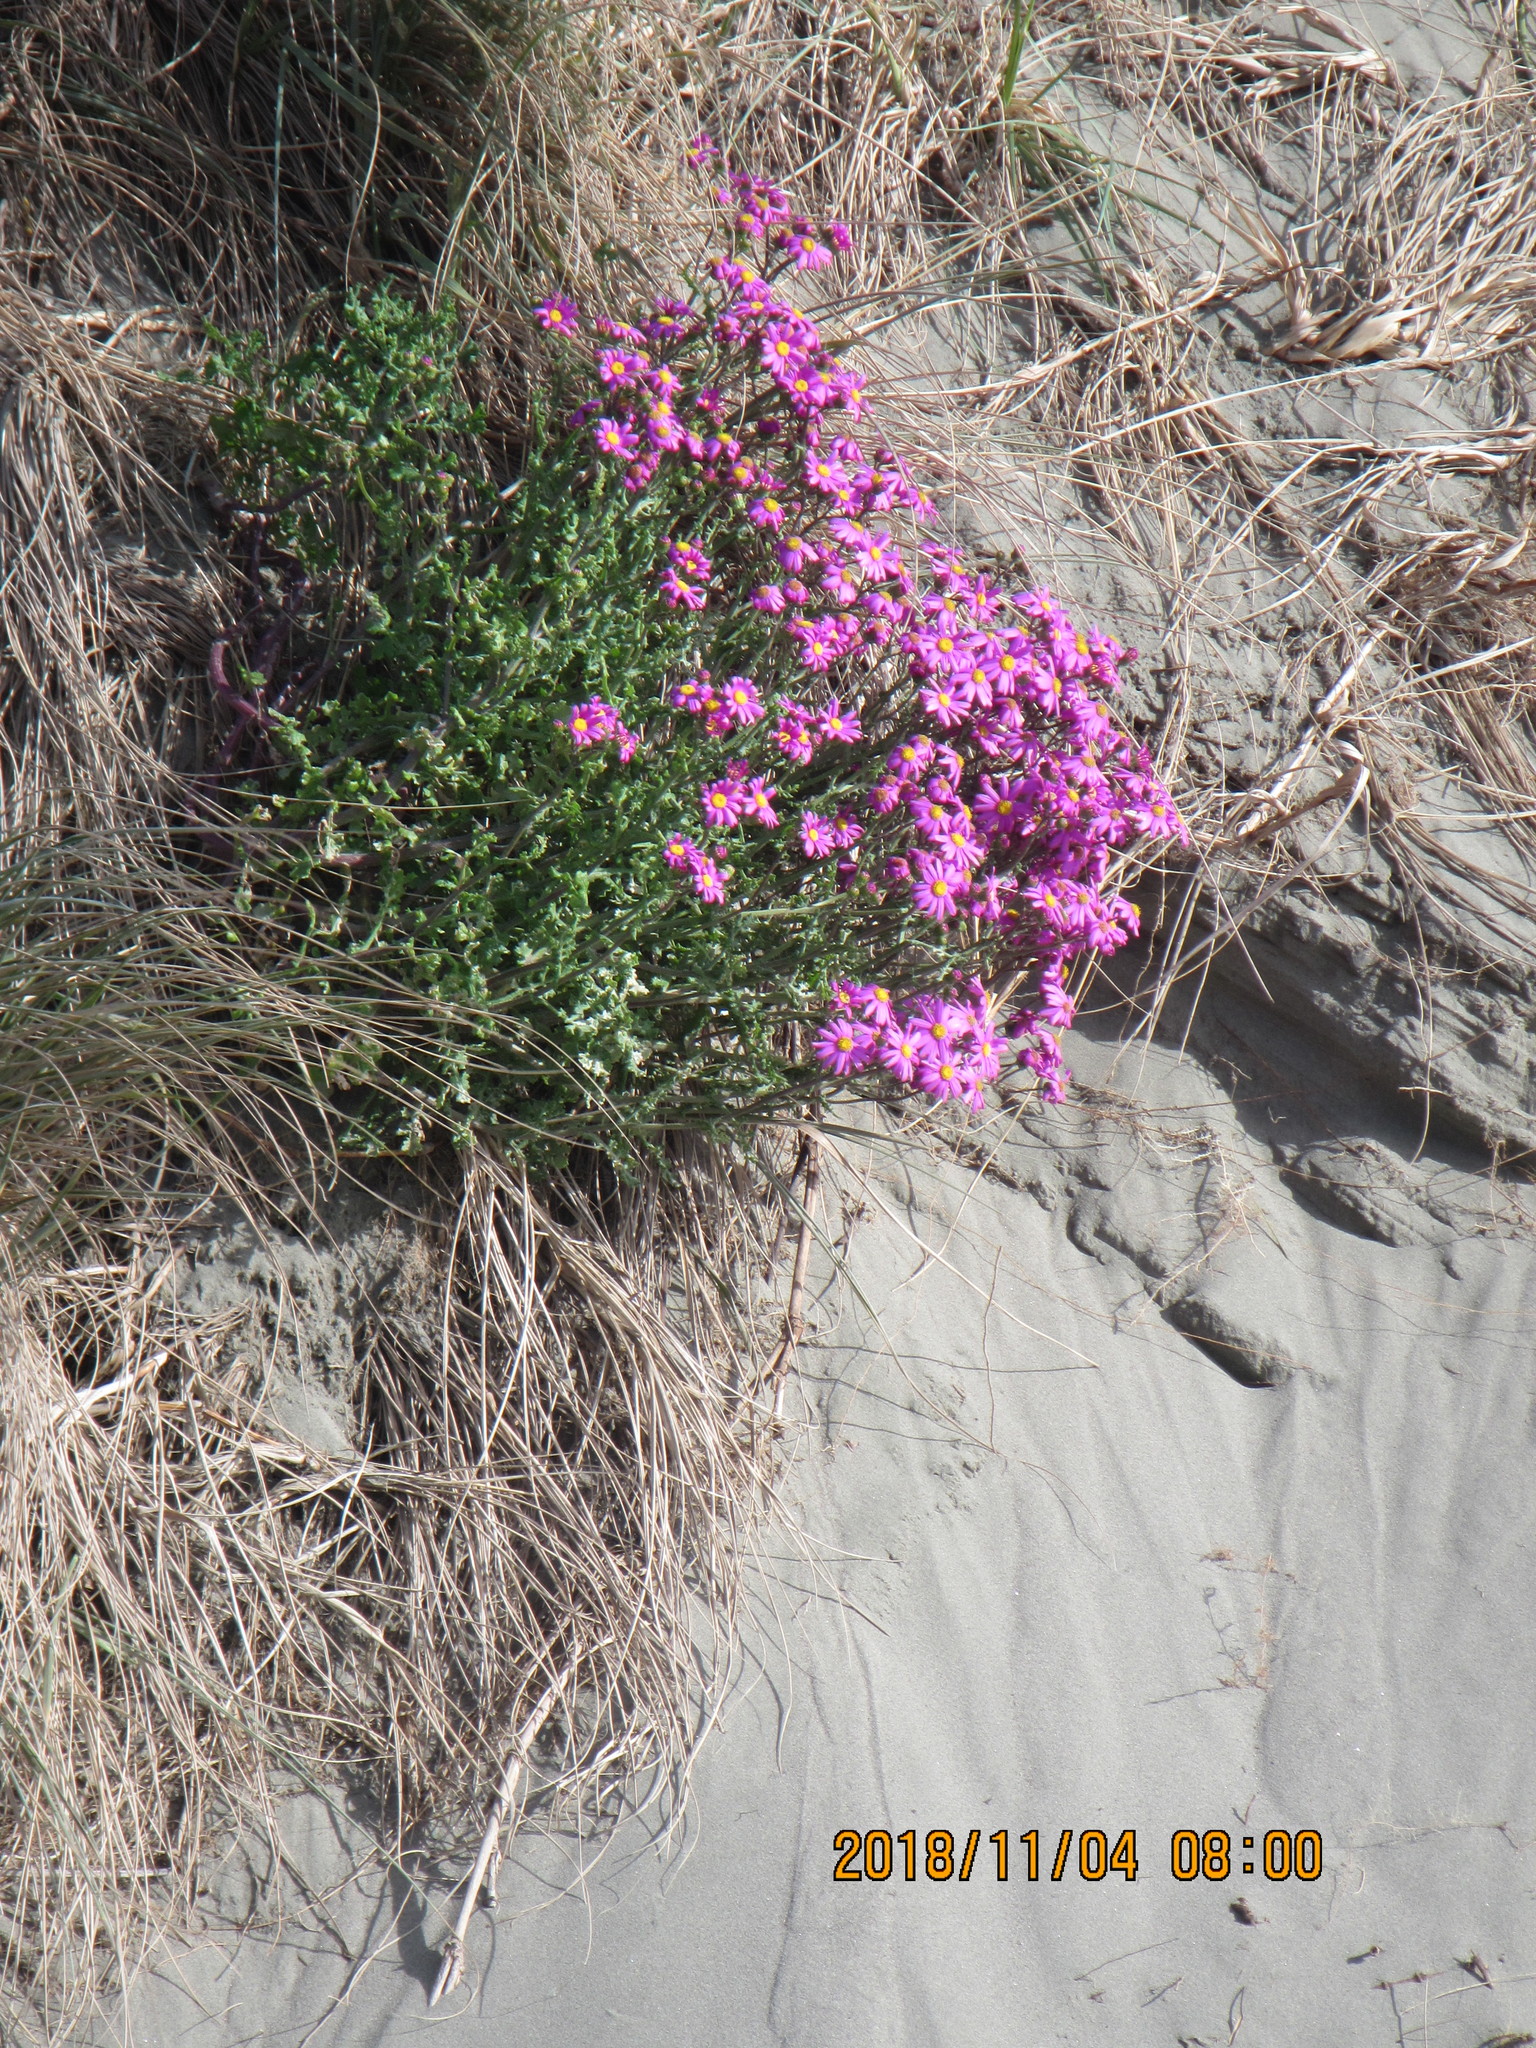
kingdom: Plantae
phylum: Tracheophyta
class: Magnoliopsida
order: Asterales
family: Asteraceae
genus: Senecio
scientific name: Senecio elegans
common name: Purple groundsel
